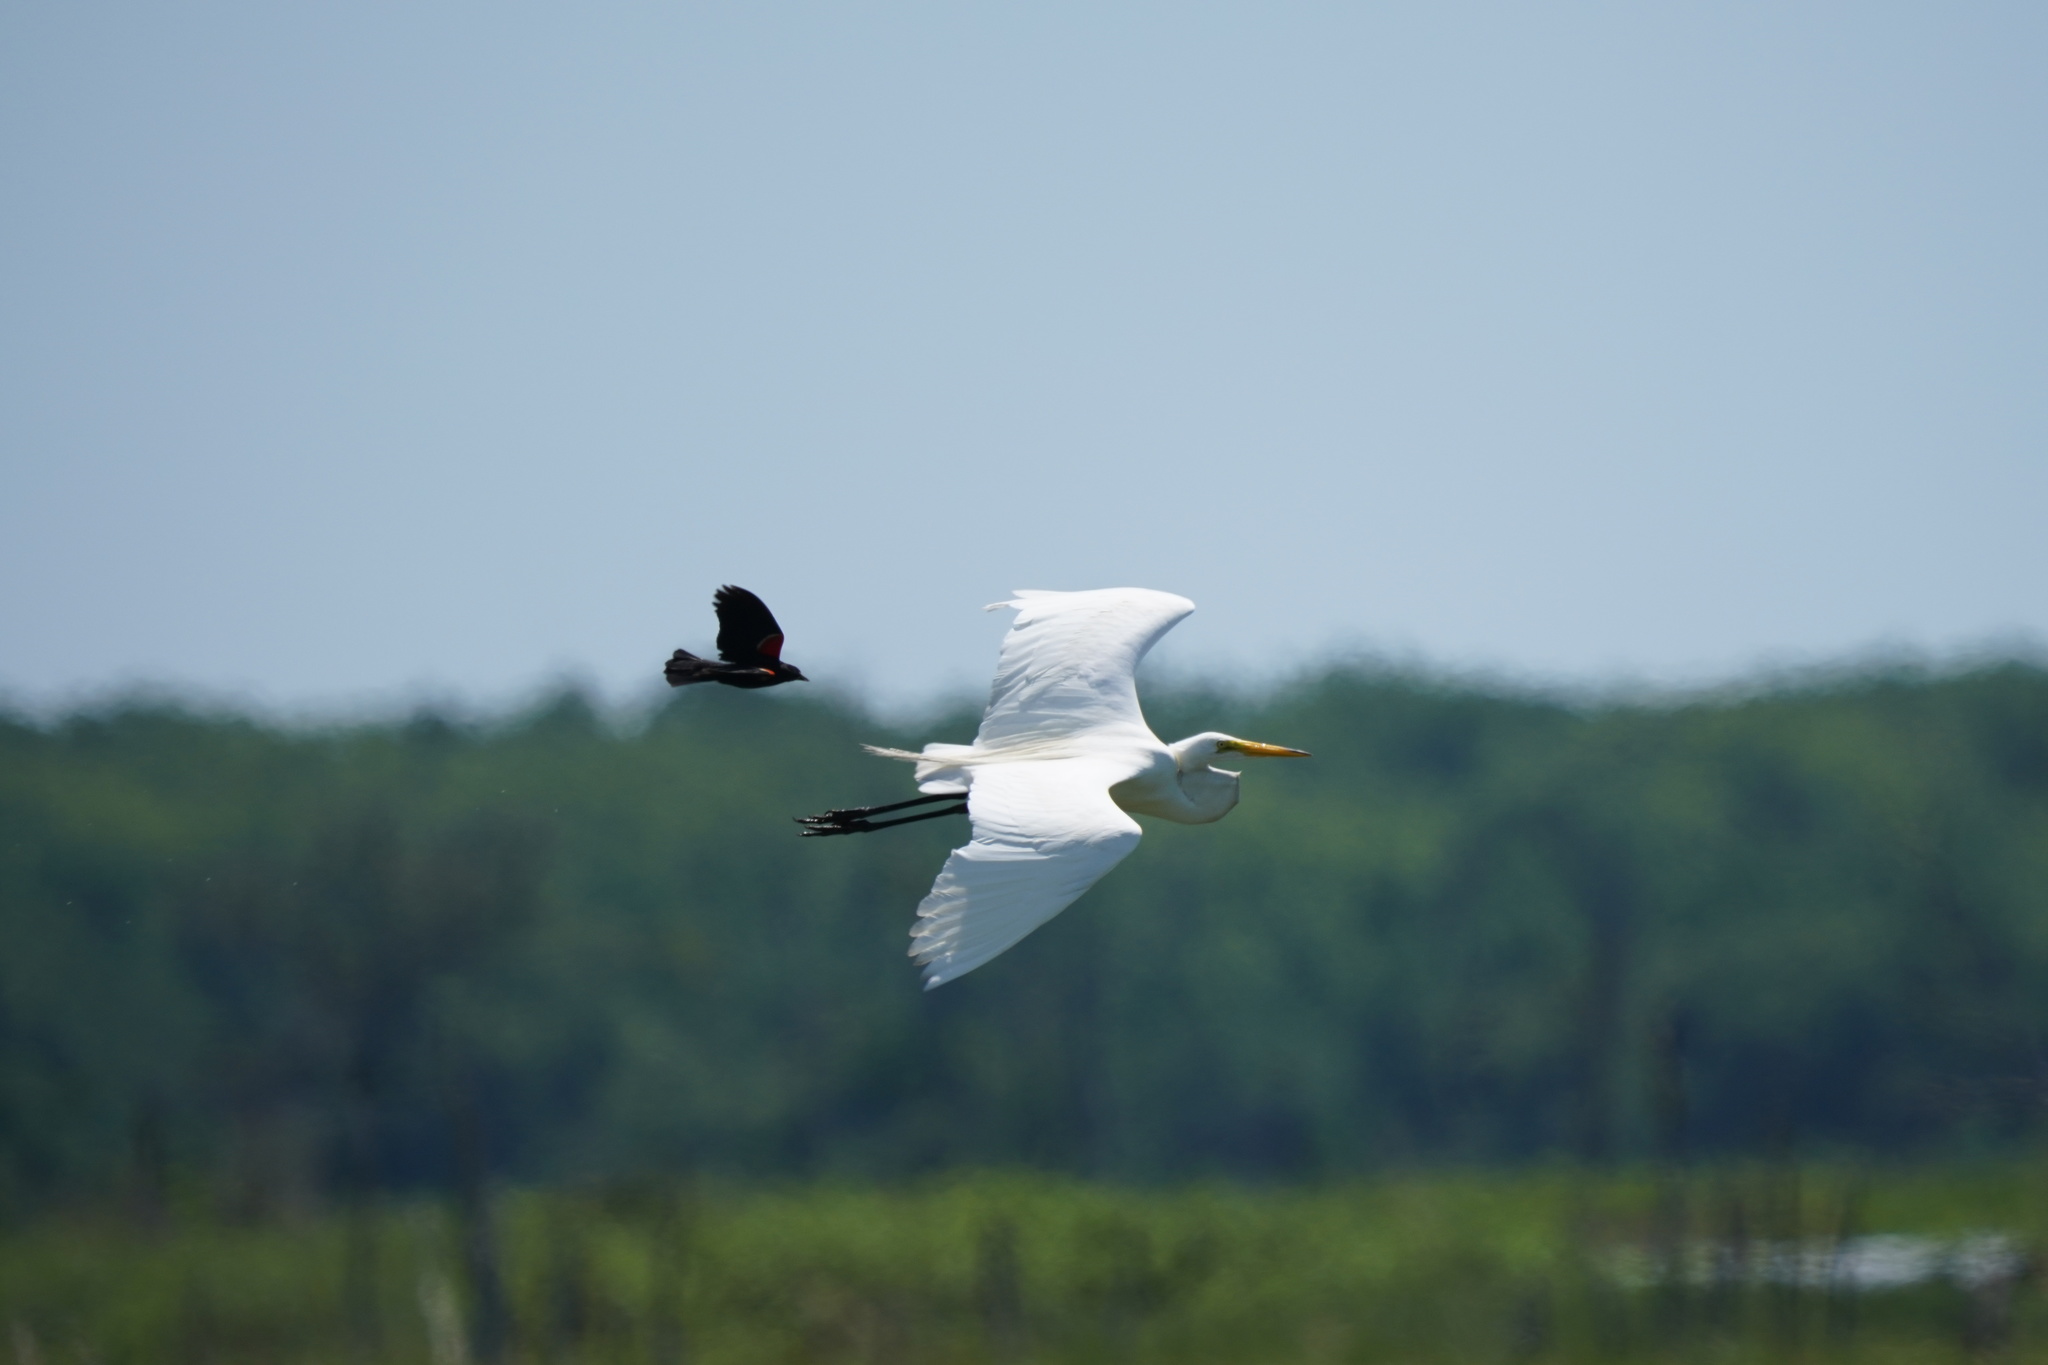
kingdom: Animalia
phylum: Chordata
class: Aves
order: Pelecaniformes
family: Ardeidae
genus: Ardea
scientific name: Ardea alba
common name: Great egret
